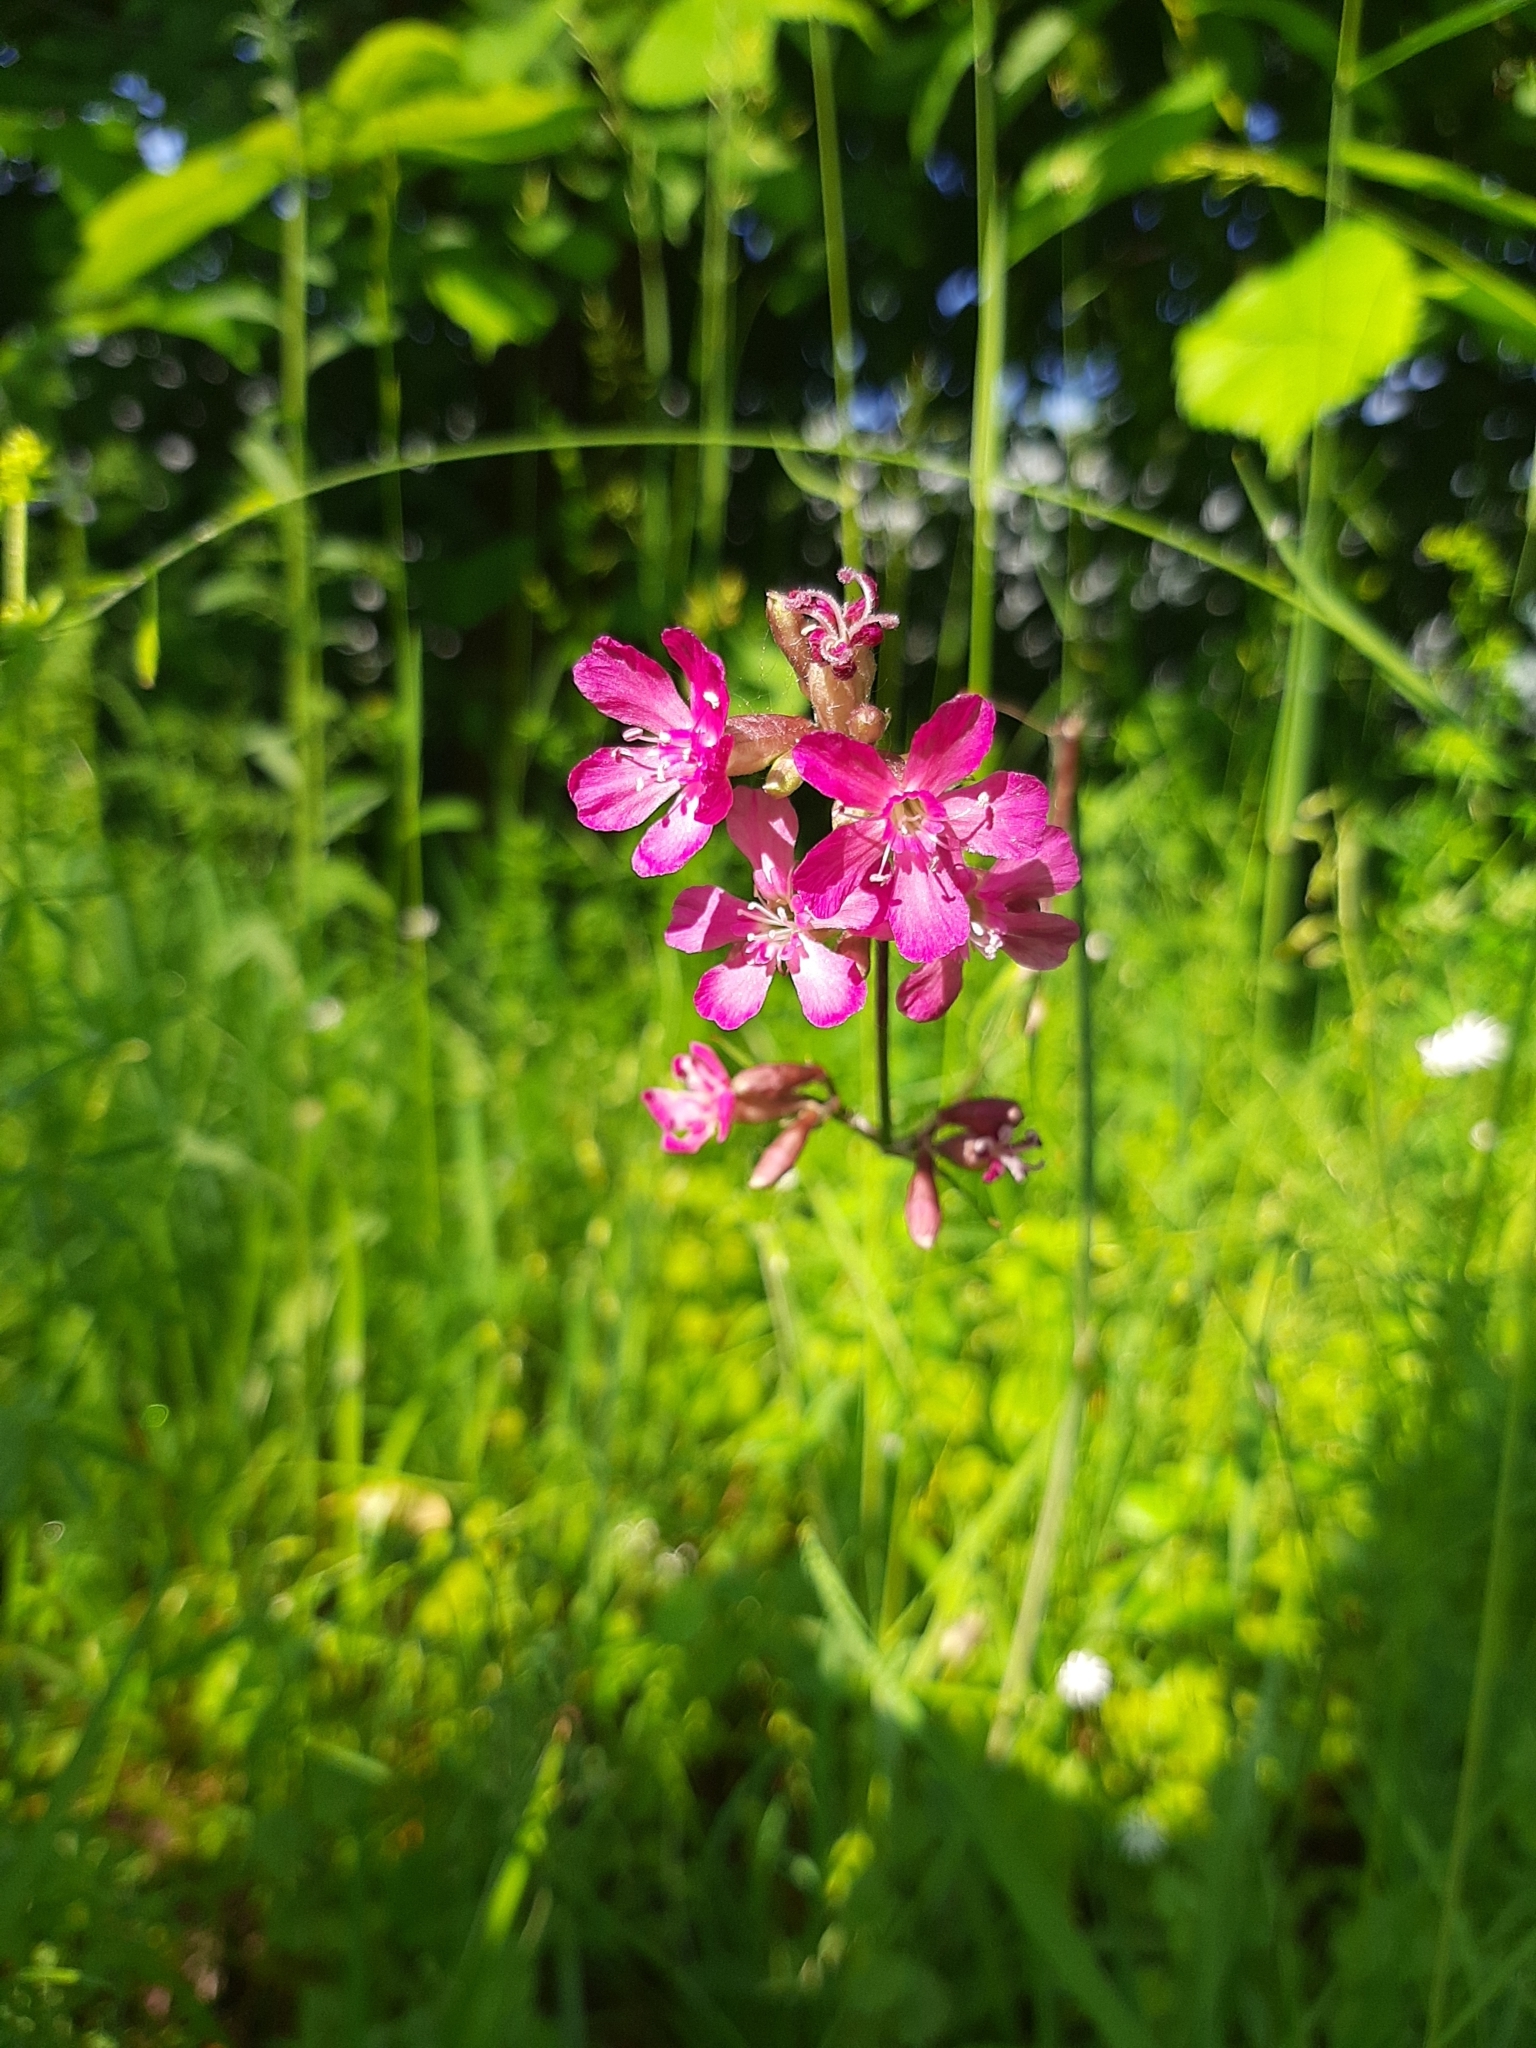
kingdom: Plantae
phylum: Tracheophyta
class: Magnoliopsida
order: Caryophyllales
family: Caryophyllaceae
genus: Viscaria
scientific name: Viscaria vulgaris
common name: Clammy campion
